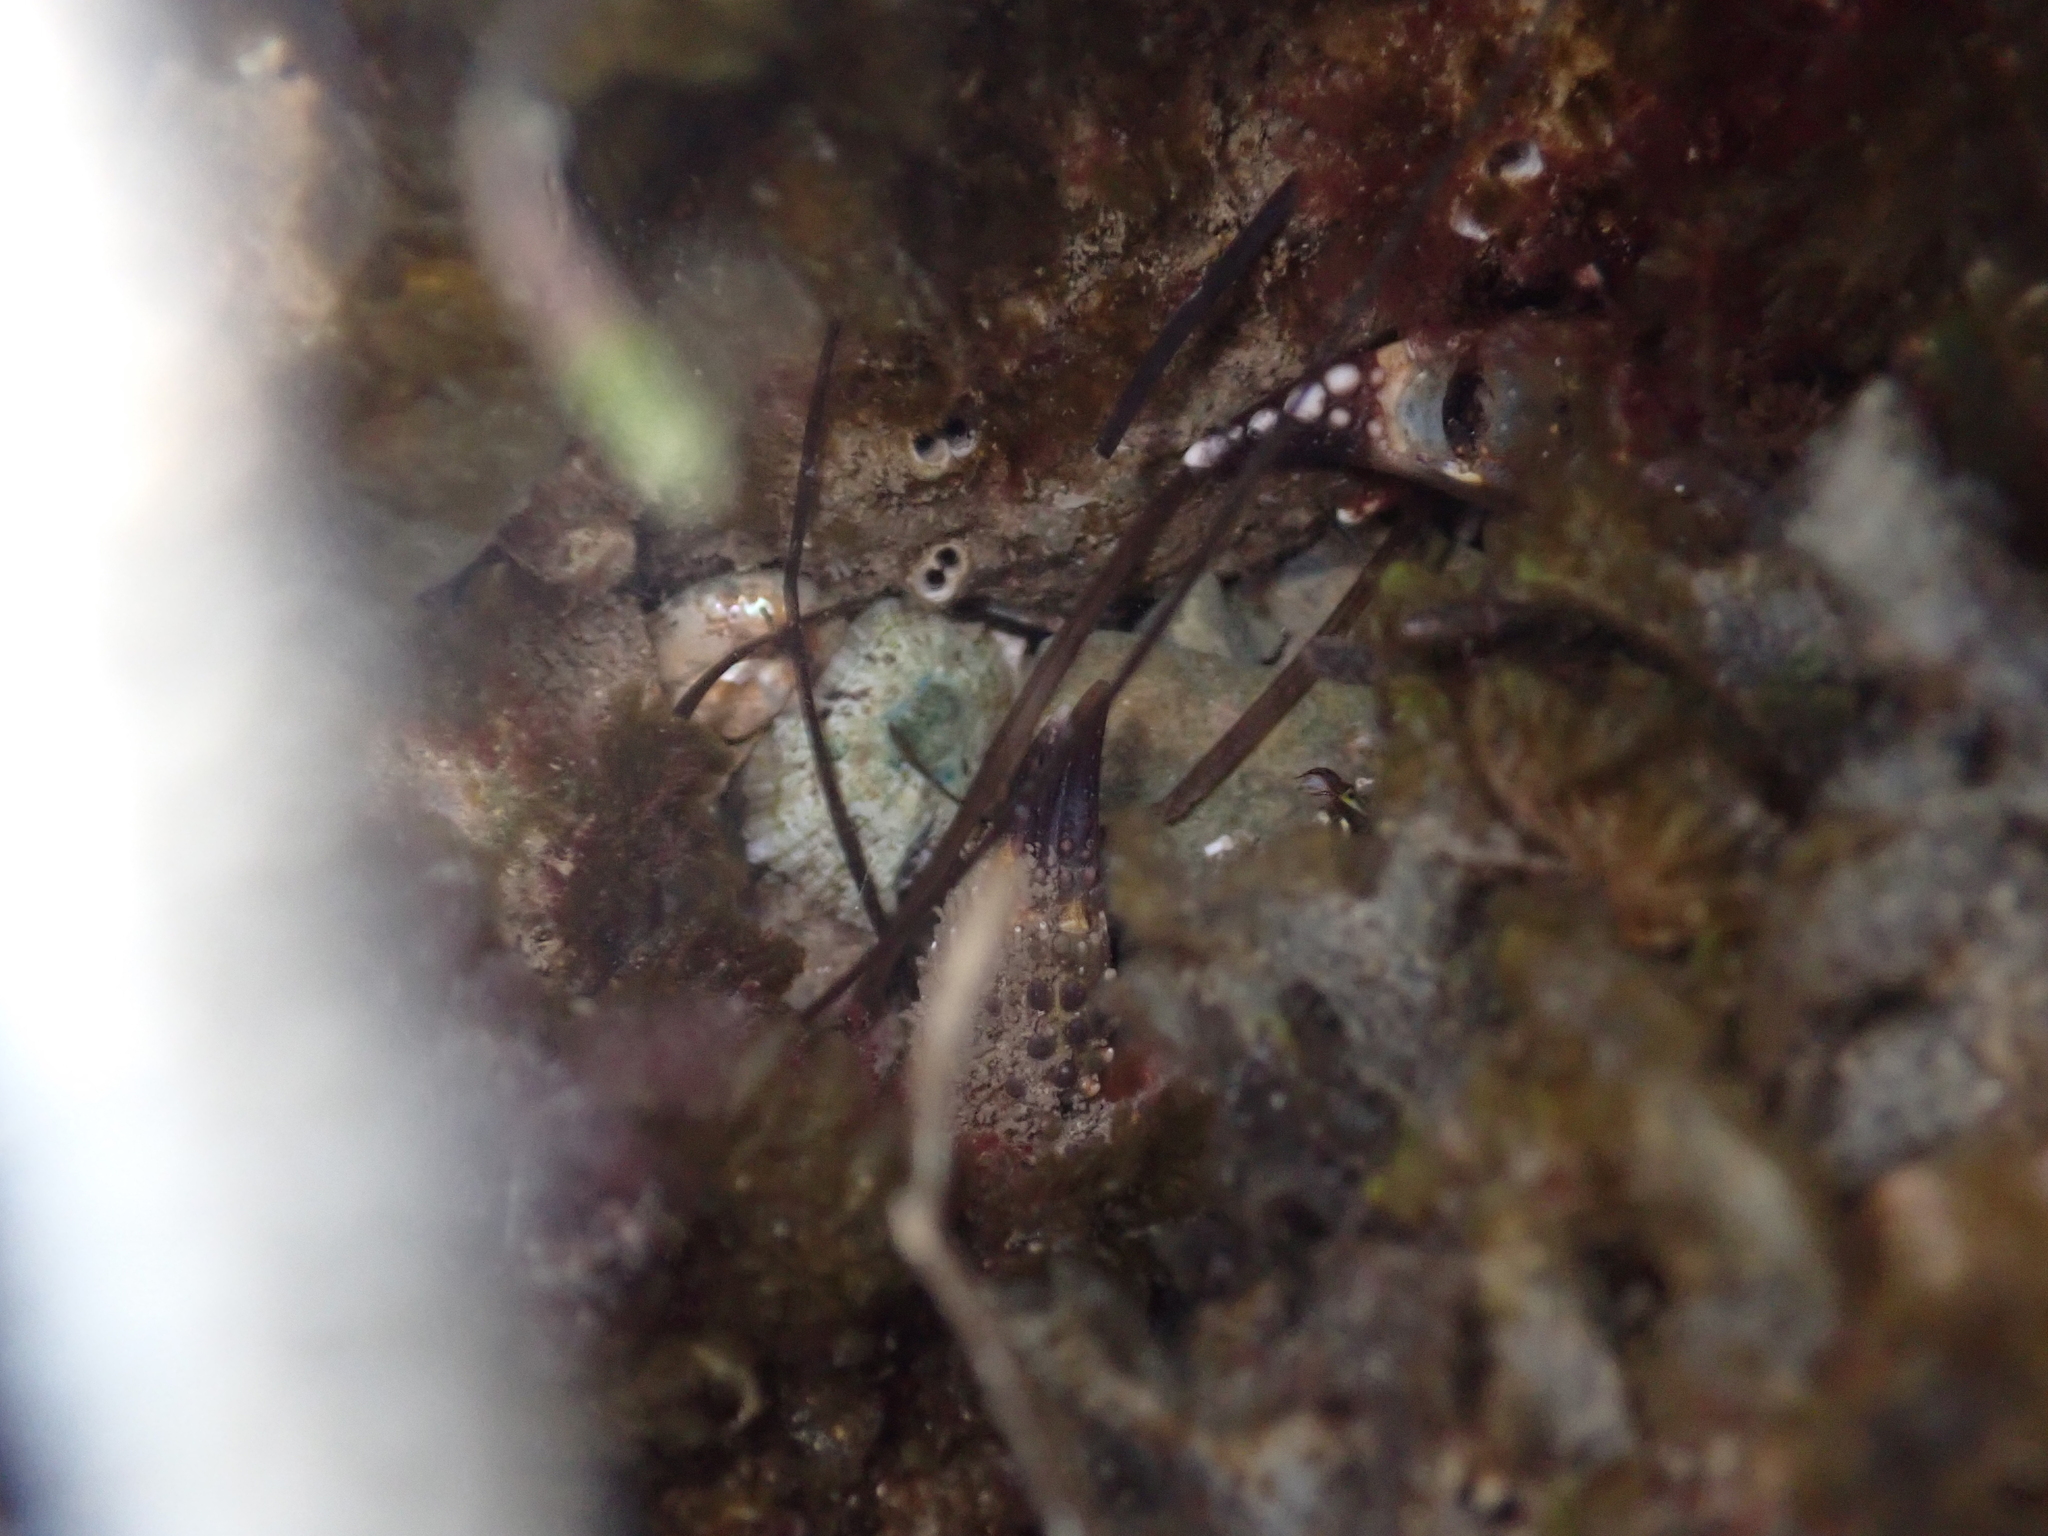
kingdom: Animalia
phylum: Arthropoda
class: Malacostraca
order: Decapoda
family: Eriphiidae
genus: Eriphia
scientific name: Eriphia verrucosa
